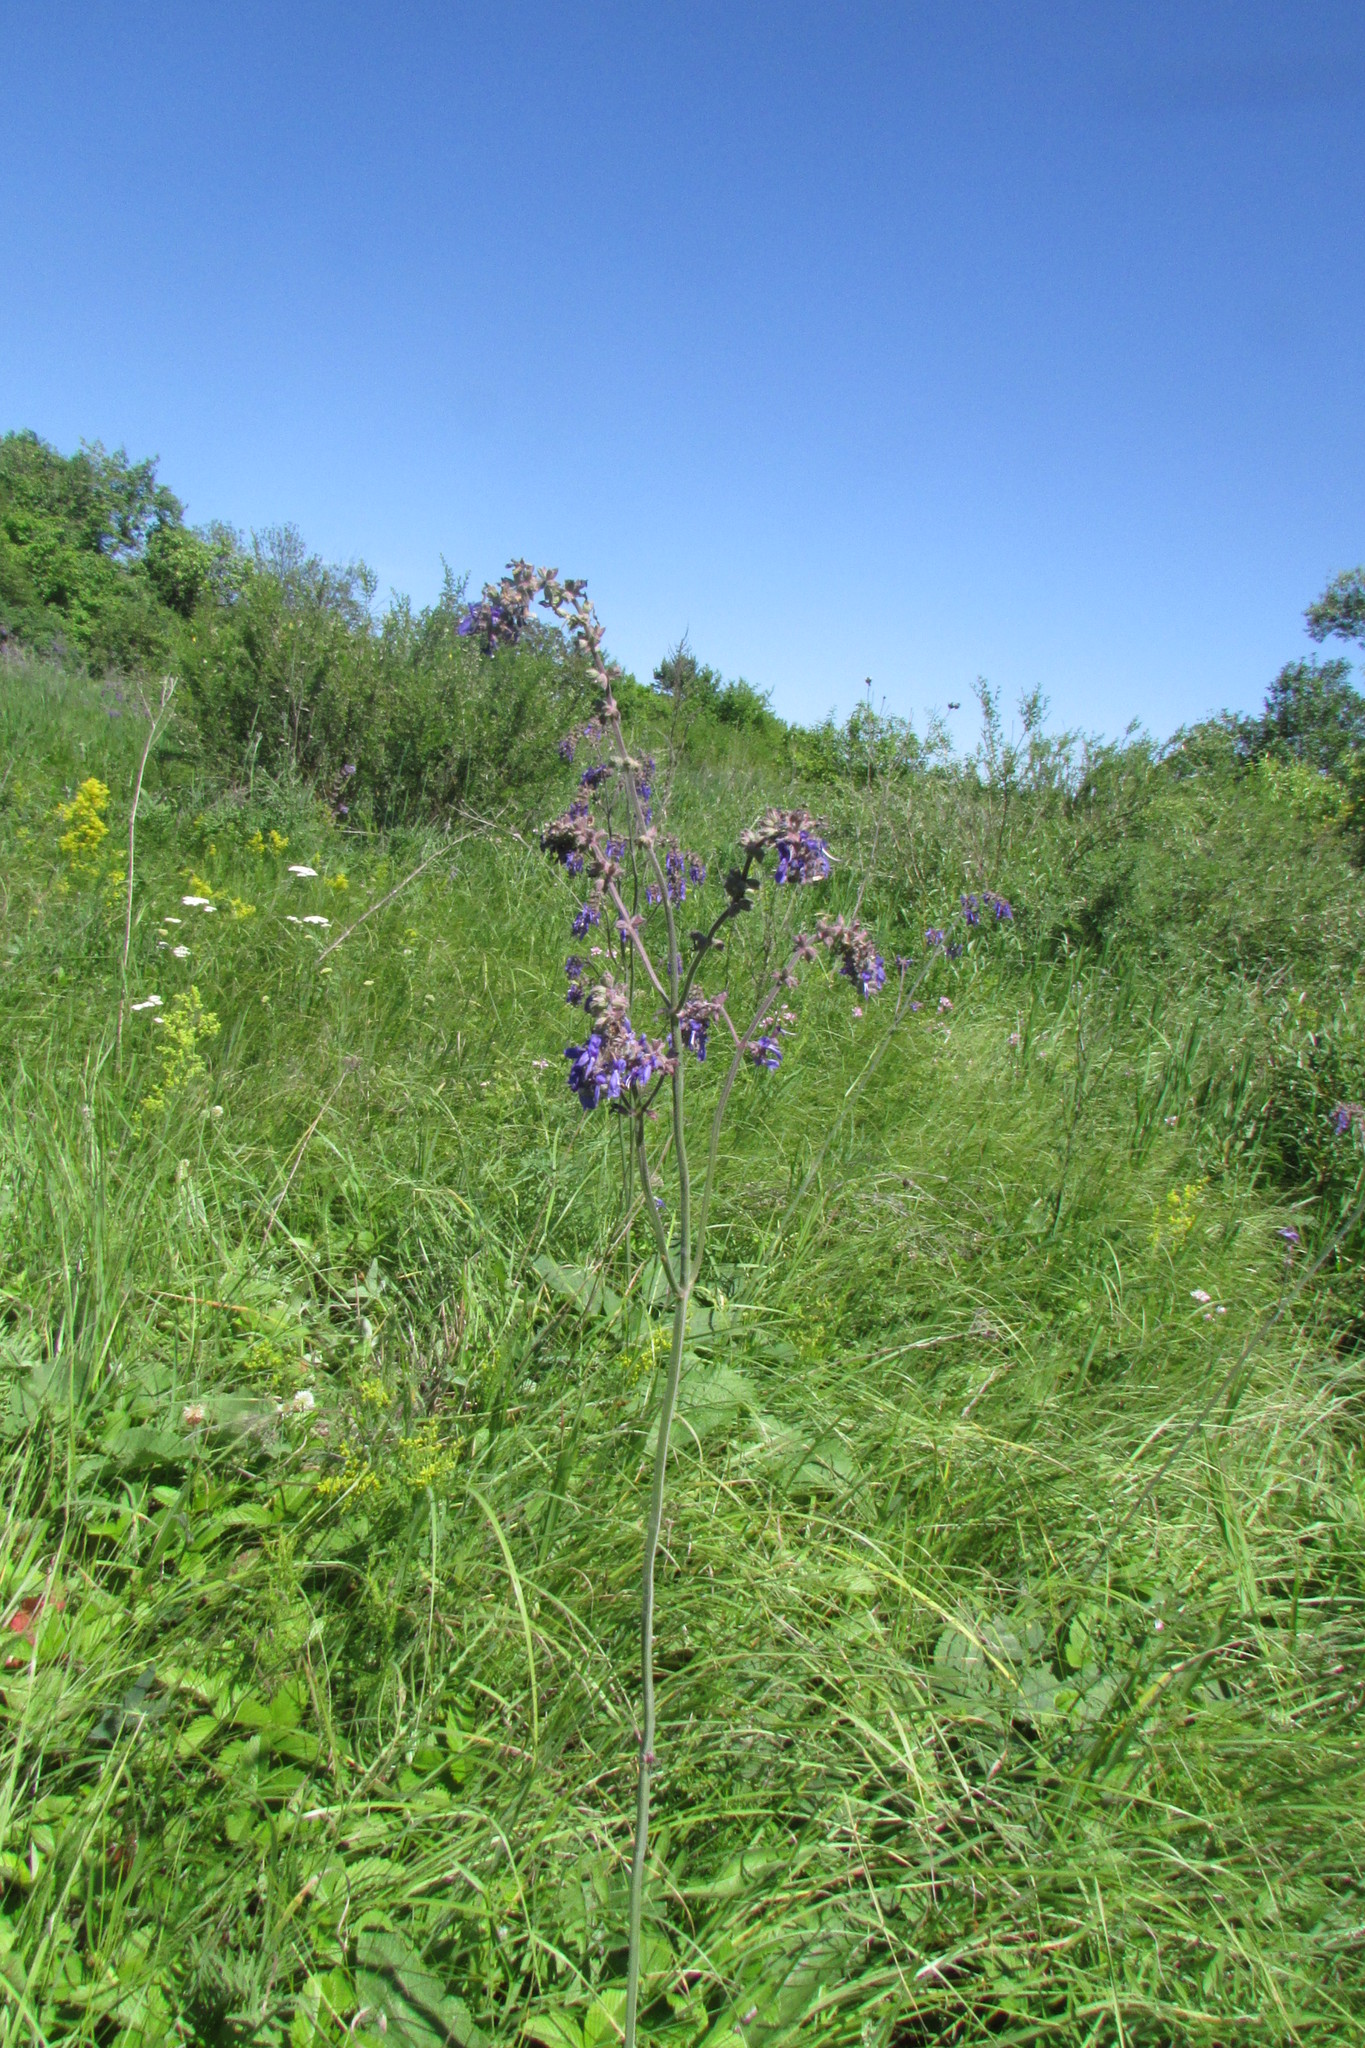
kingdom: Plantae
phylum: Tracheophyta
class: Magnoliopsida
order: Lamiales
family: Lamiaceae
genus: Salvia
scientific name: Salvia nutans
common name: Nodding sage
